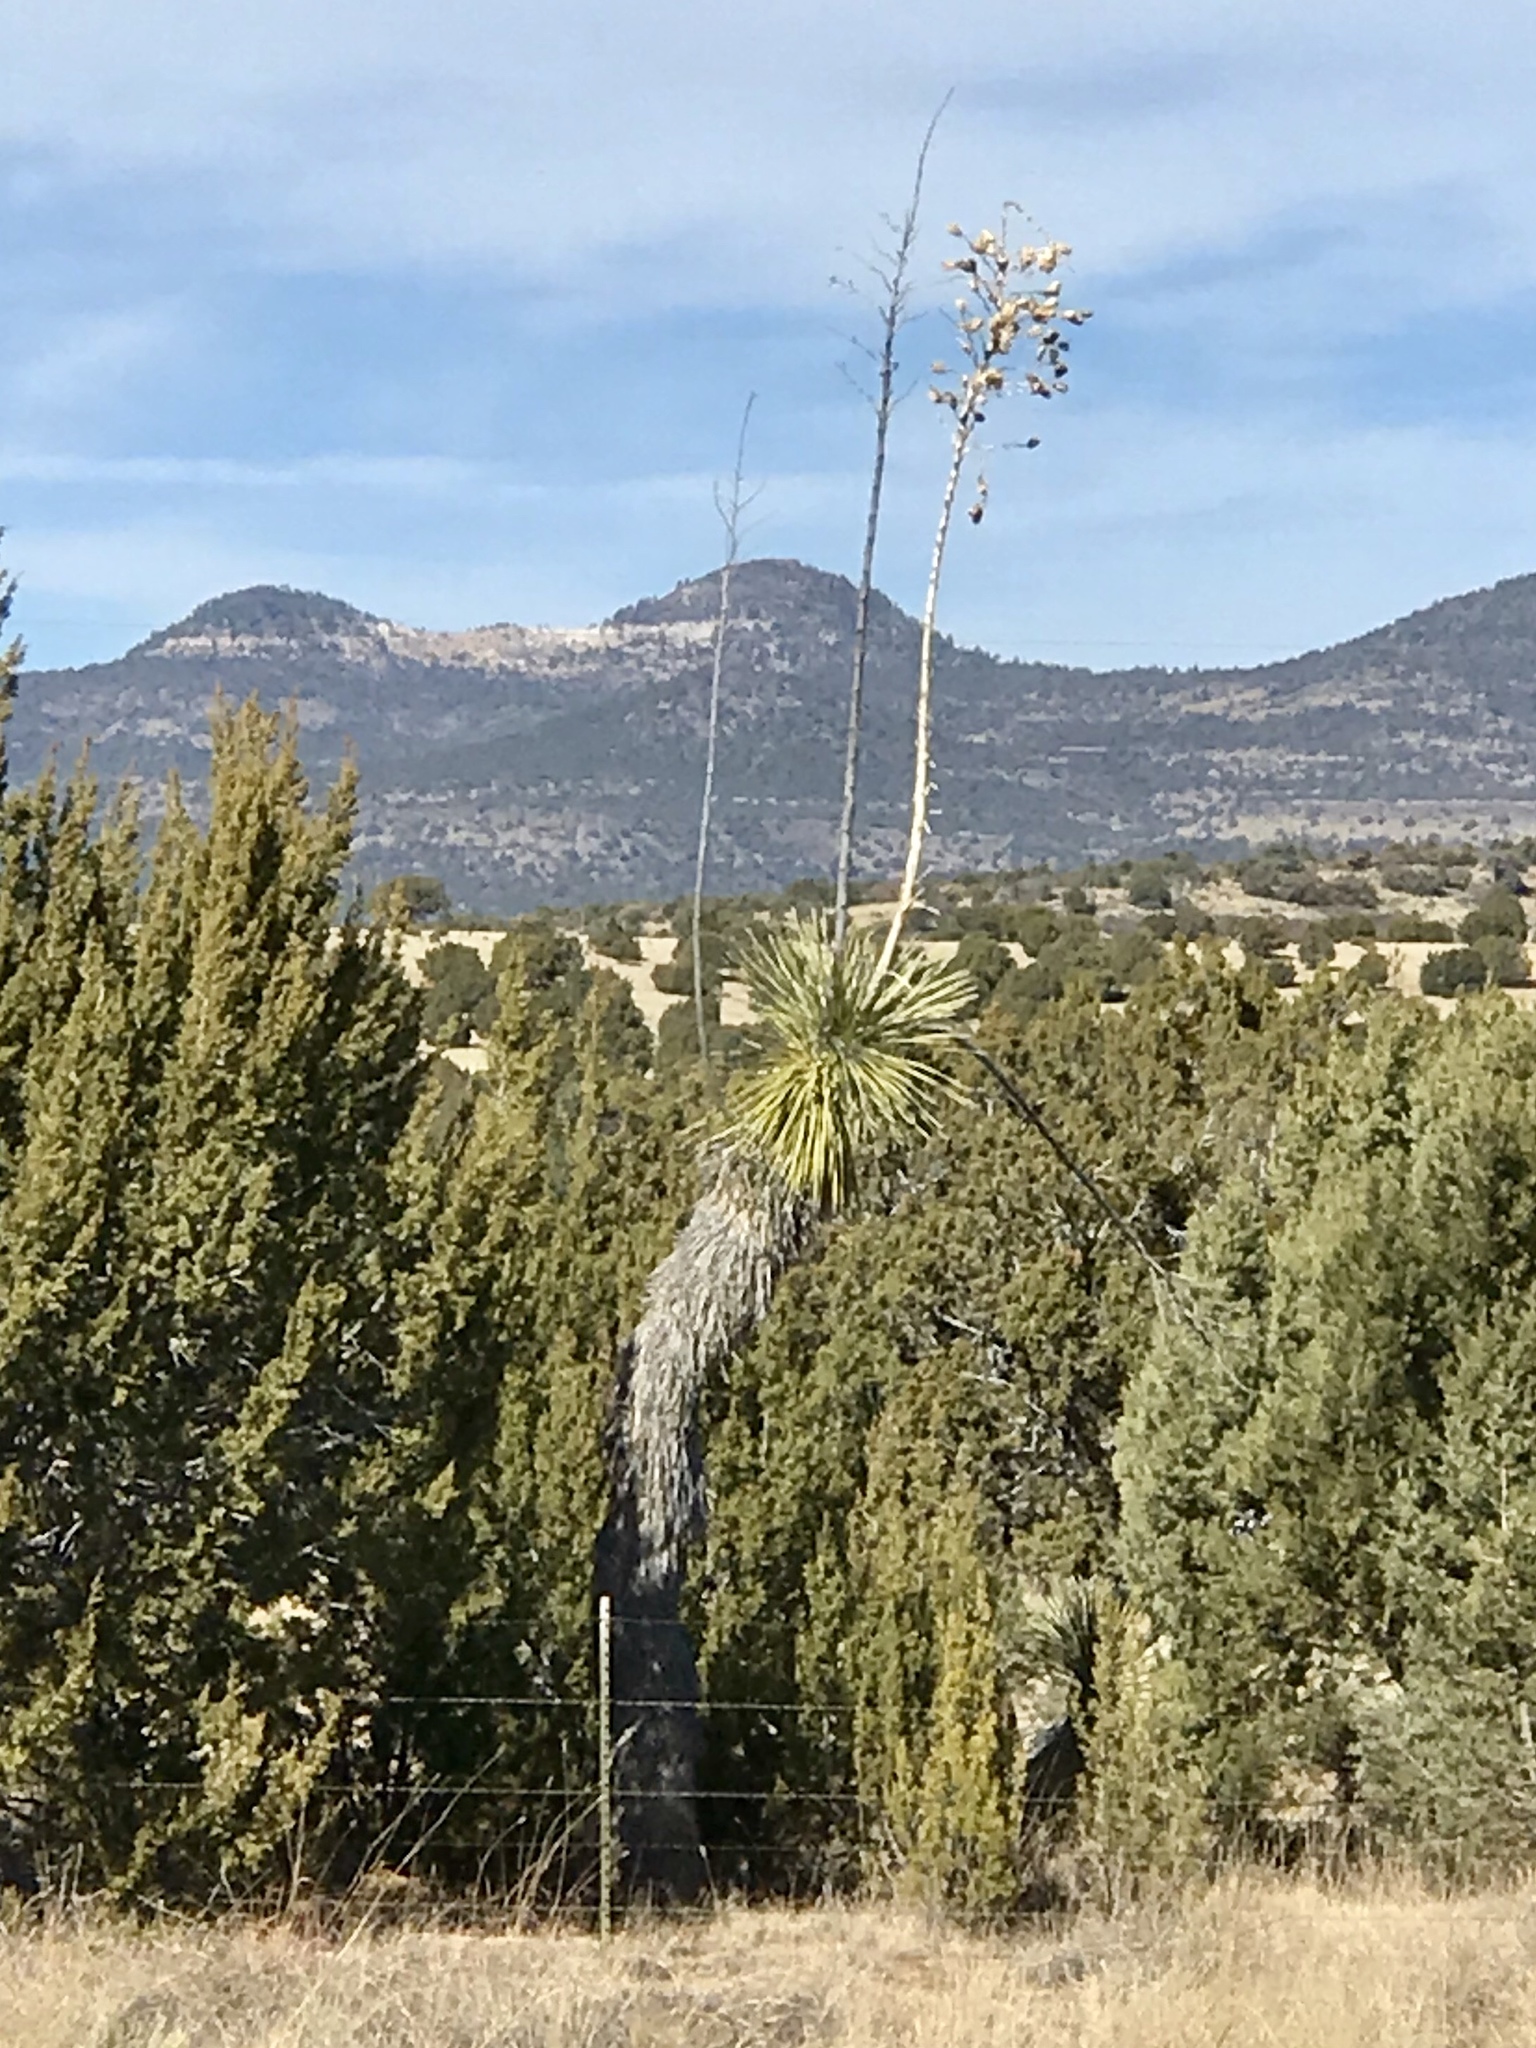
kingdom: Plantae
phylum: Tracheophyta
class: Liliopsida
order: Asparagales
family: Asparagaceae
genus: Yucca
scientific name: Yucca elata
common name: Palmella
